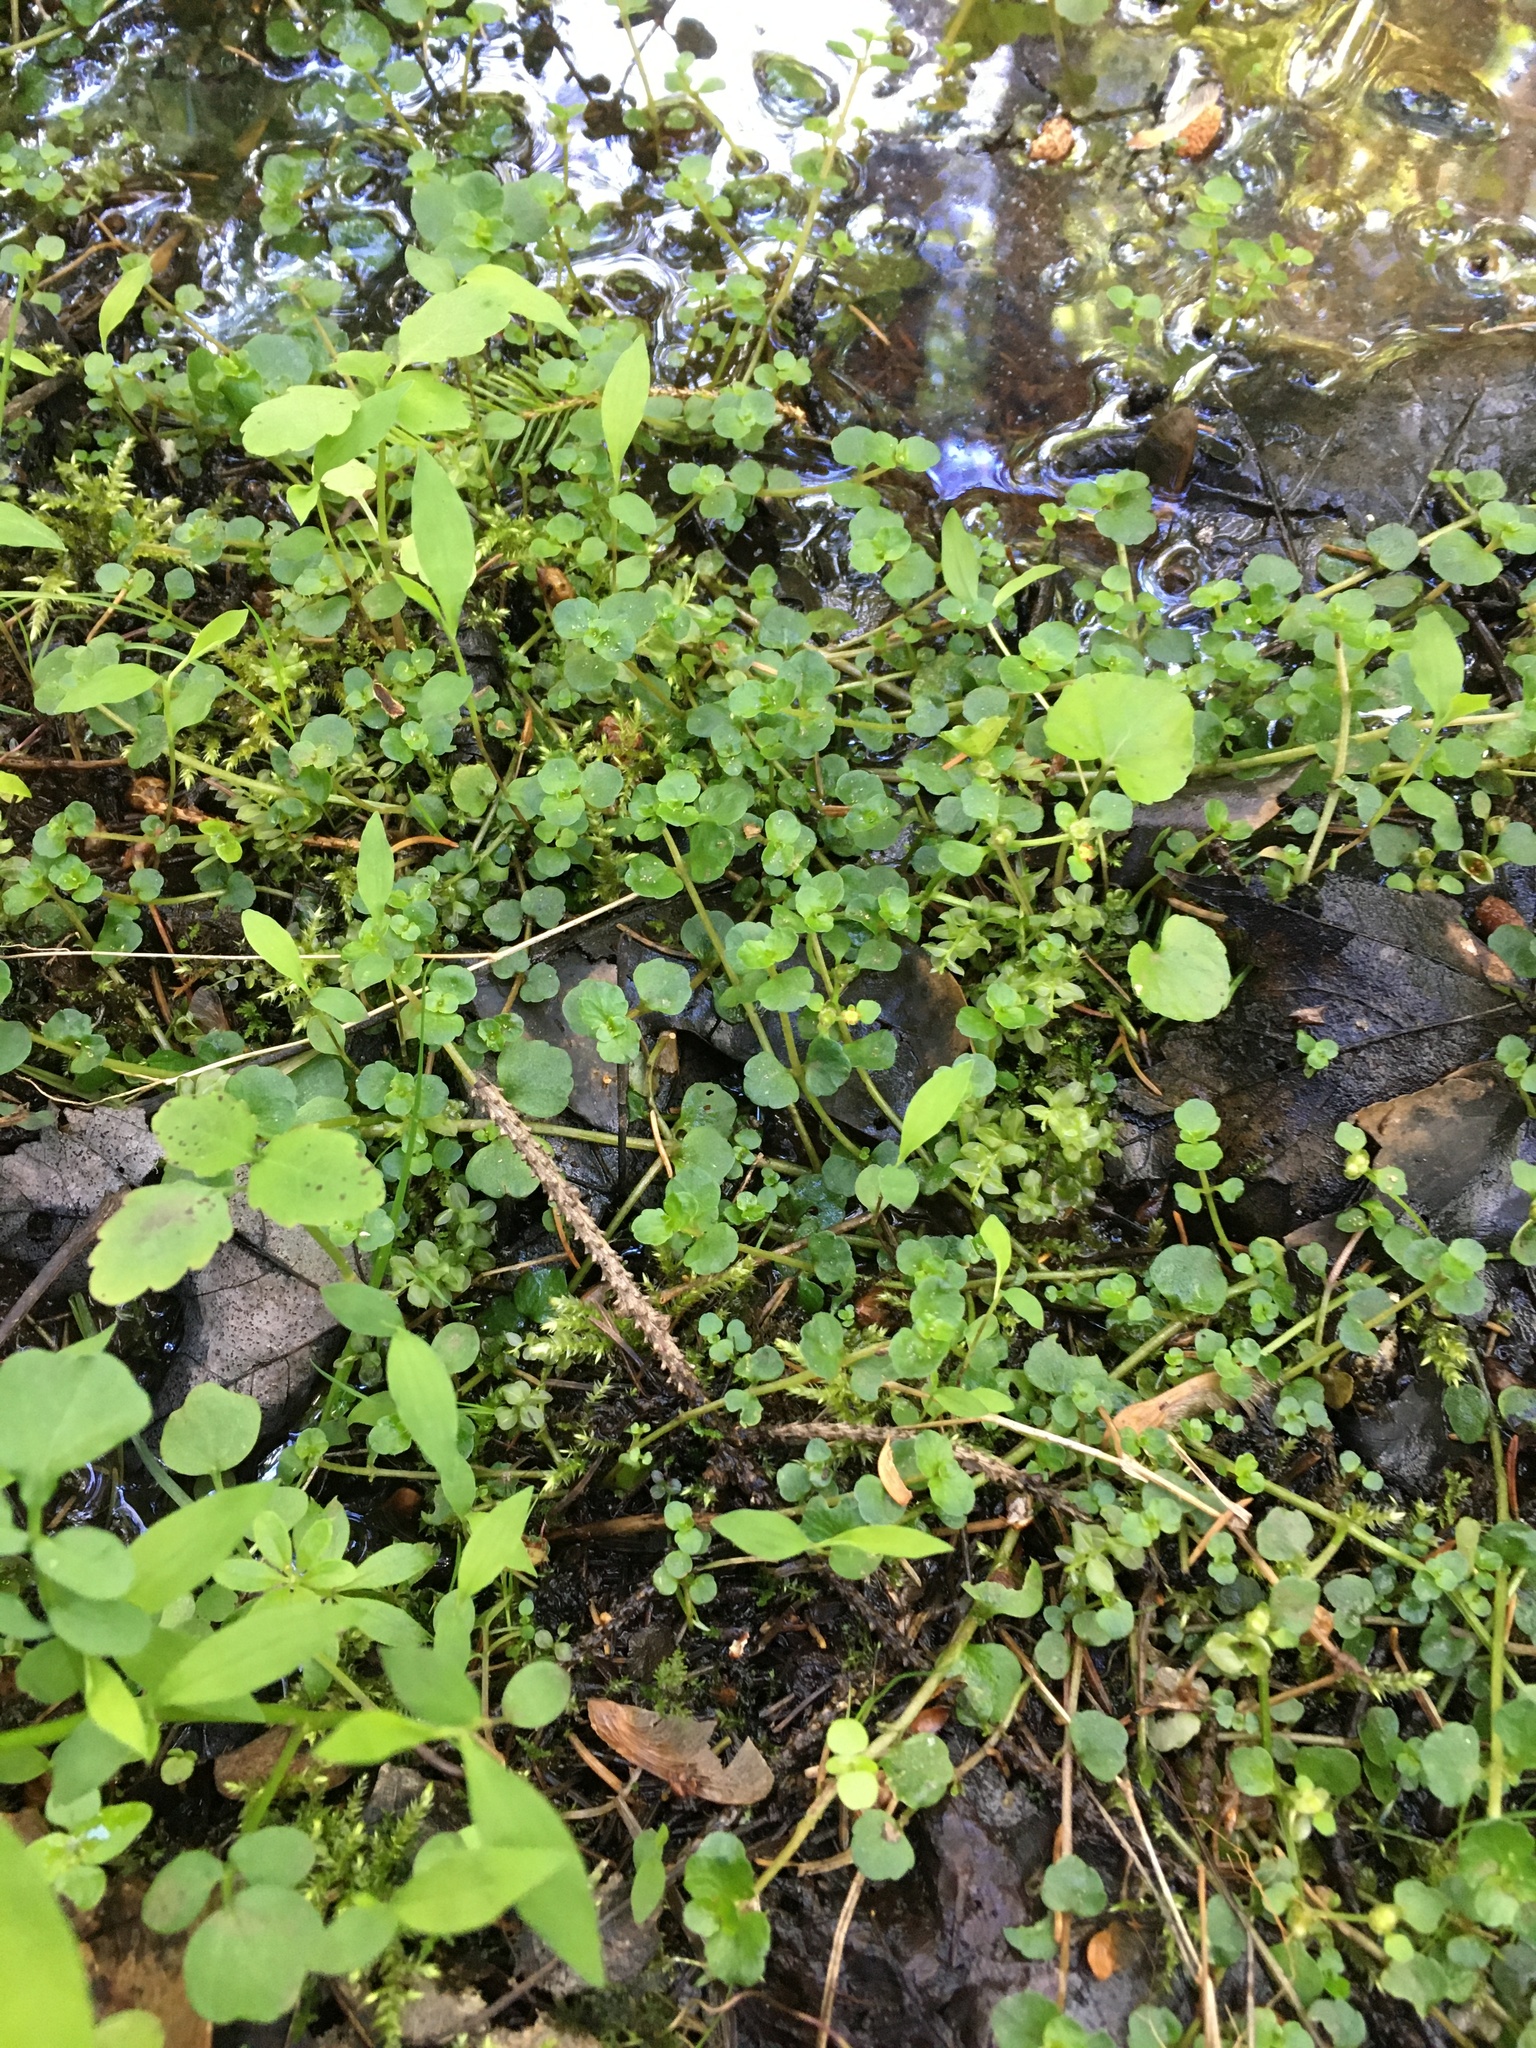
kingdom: Plantae
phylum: Tracheophyta
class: Magnoliopsida
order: Saxifragales
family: Saxifragaceae
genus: Chrysosplenium
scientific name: Chrysosplenium americanum
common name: American golden-saxifrage
